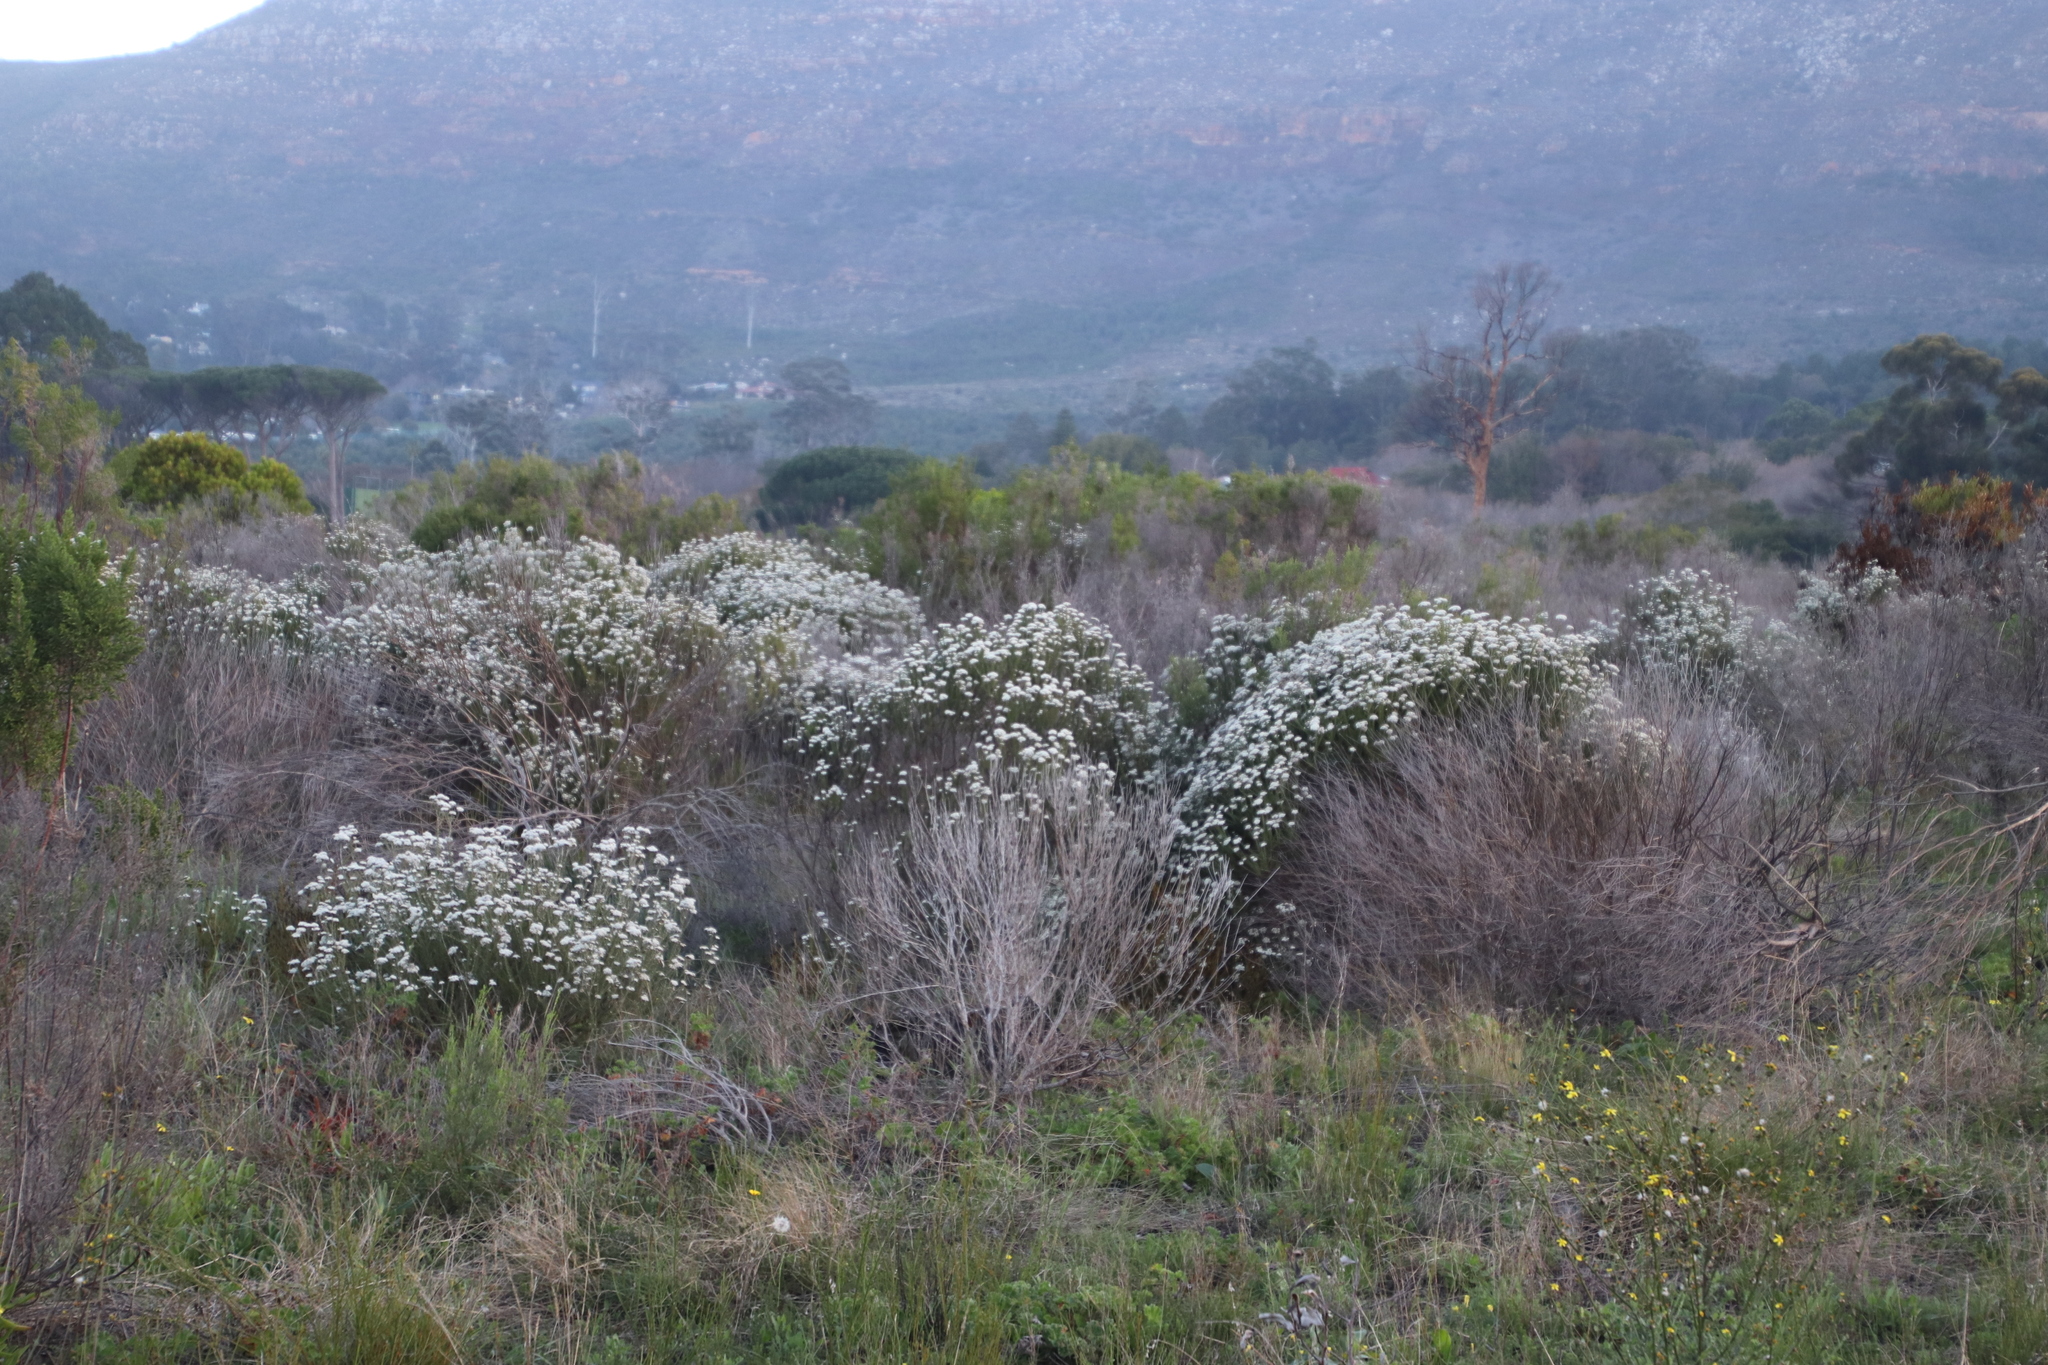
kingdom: Plantae
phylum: Tracheophyta
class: Magnoliopsida
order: Asterales
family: Asteraceae
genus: Metalasia
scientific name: Metalasia densa
